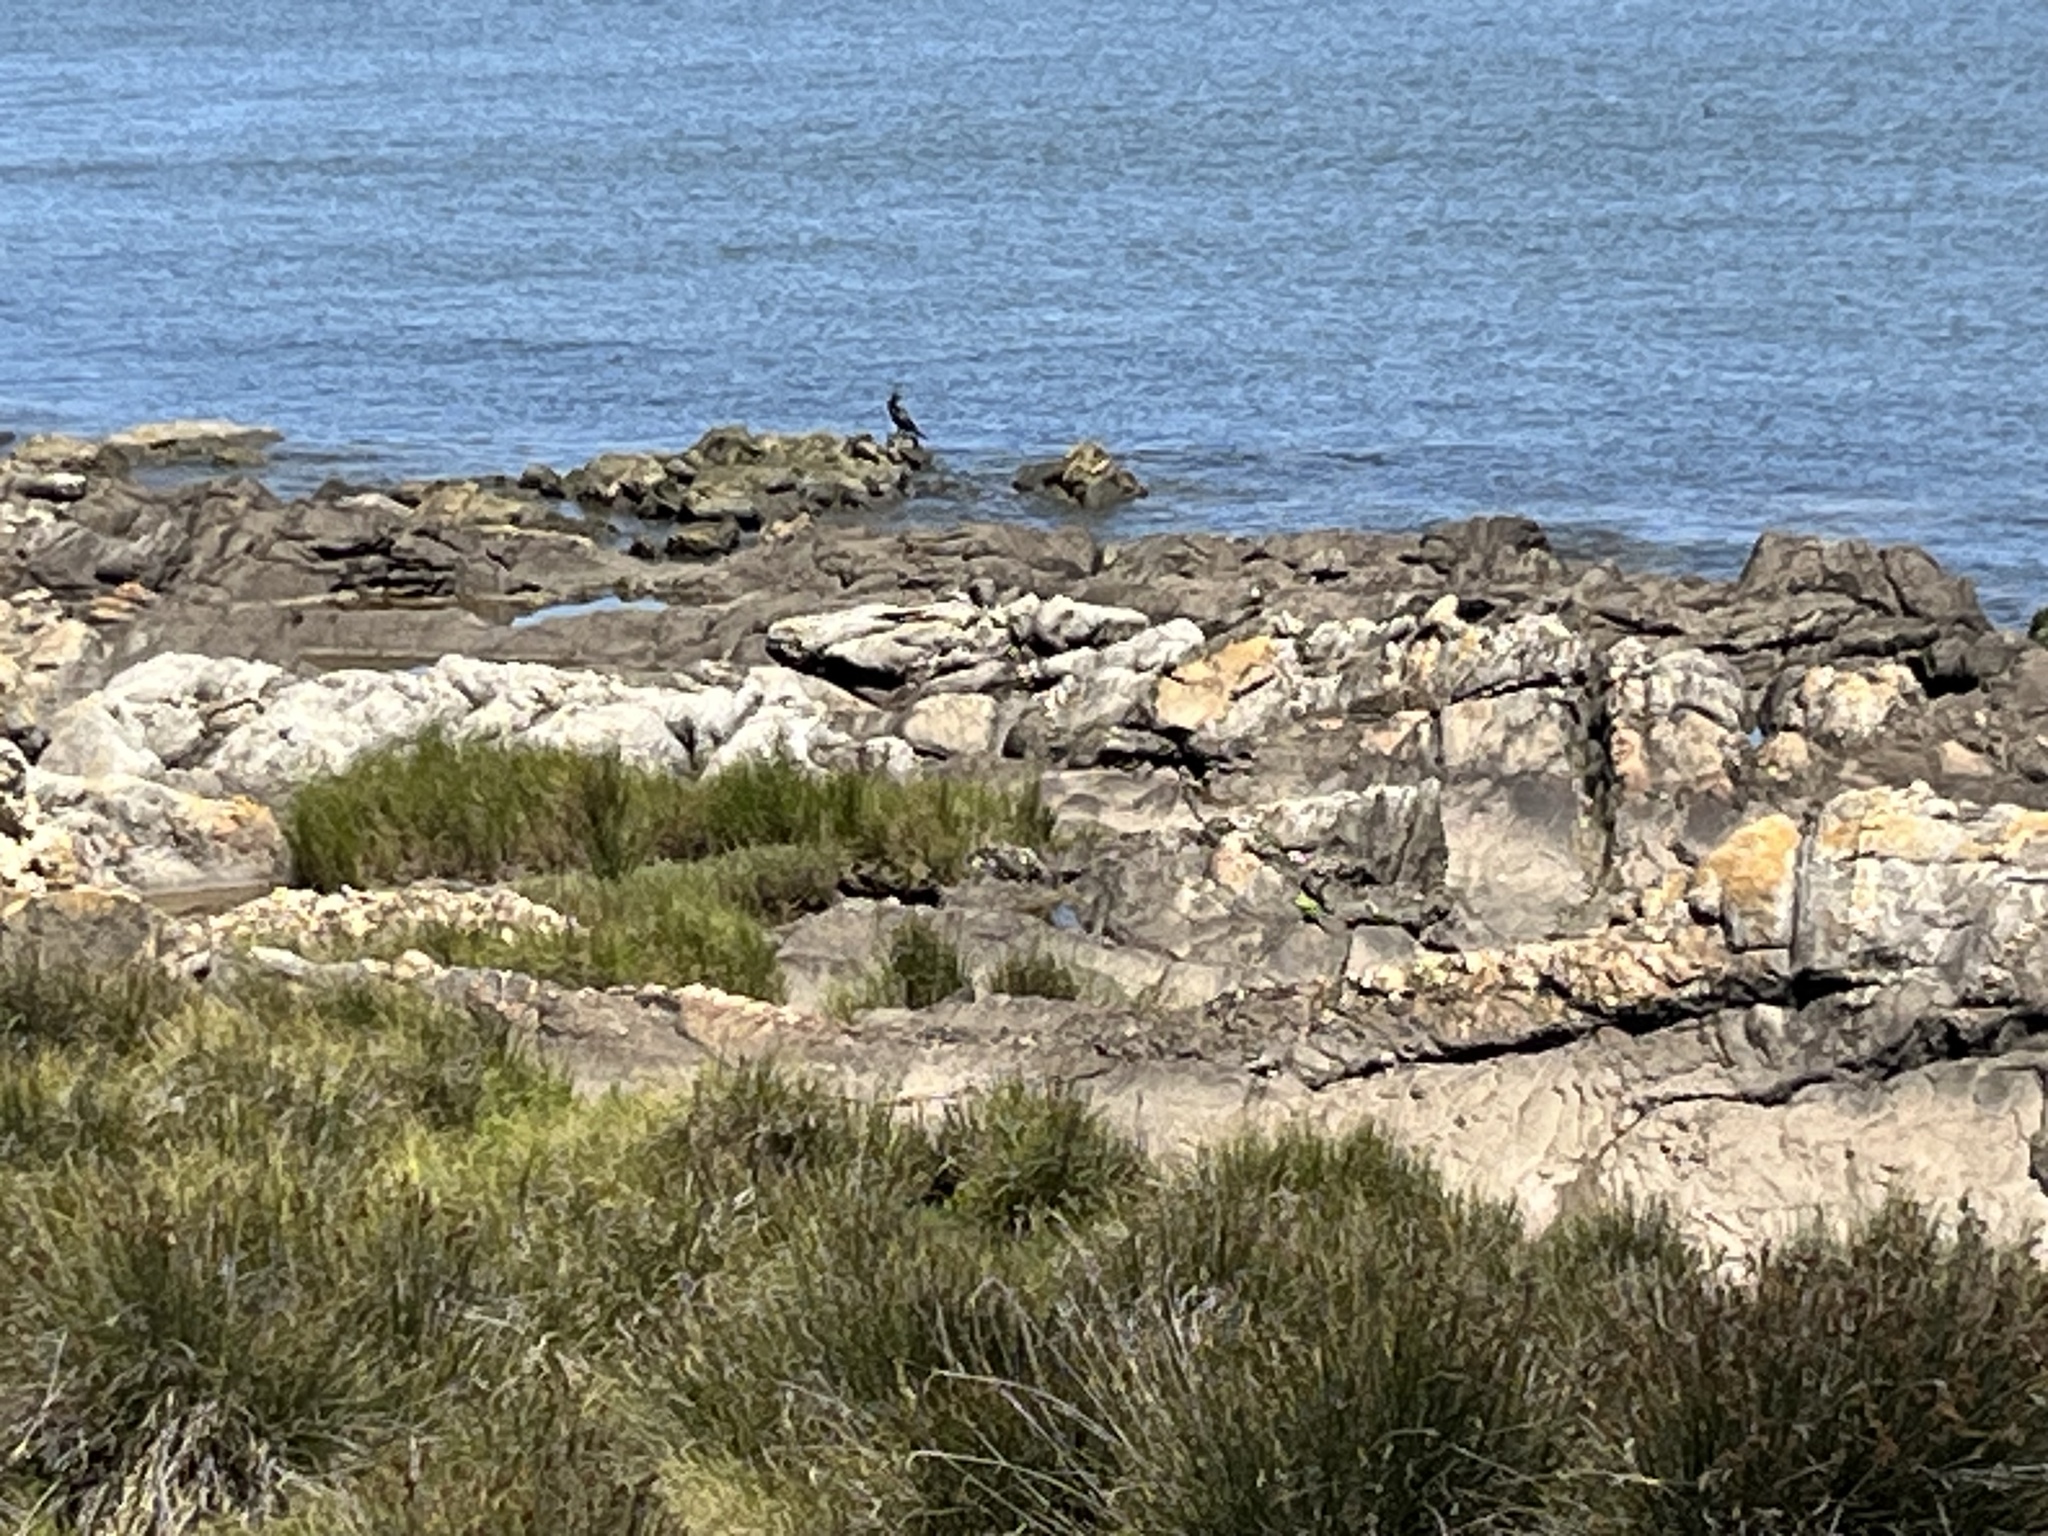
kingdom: Animalia
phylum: Chordata
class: Aves
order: Suliformes
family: Phalacrocoracidae
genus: Phalacrocorax
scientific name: Phalacrocorax brasilianus
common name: Neotropic cormorant
